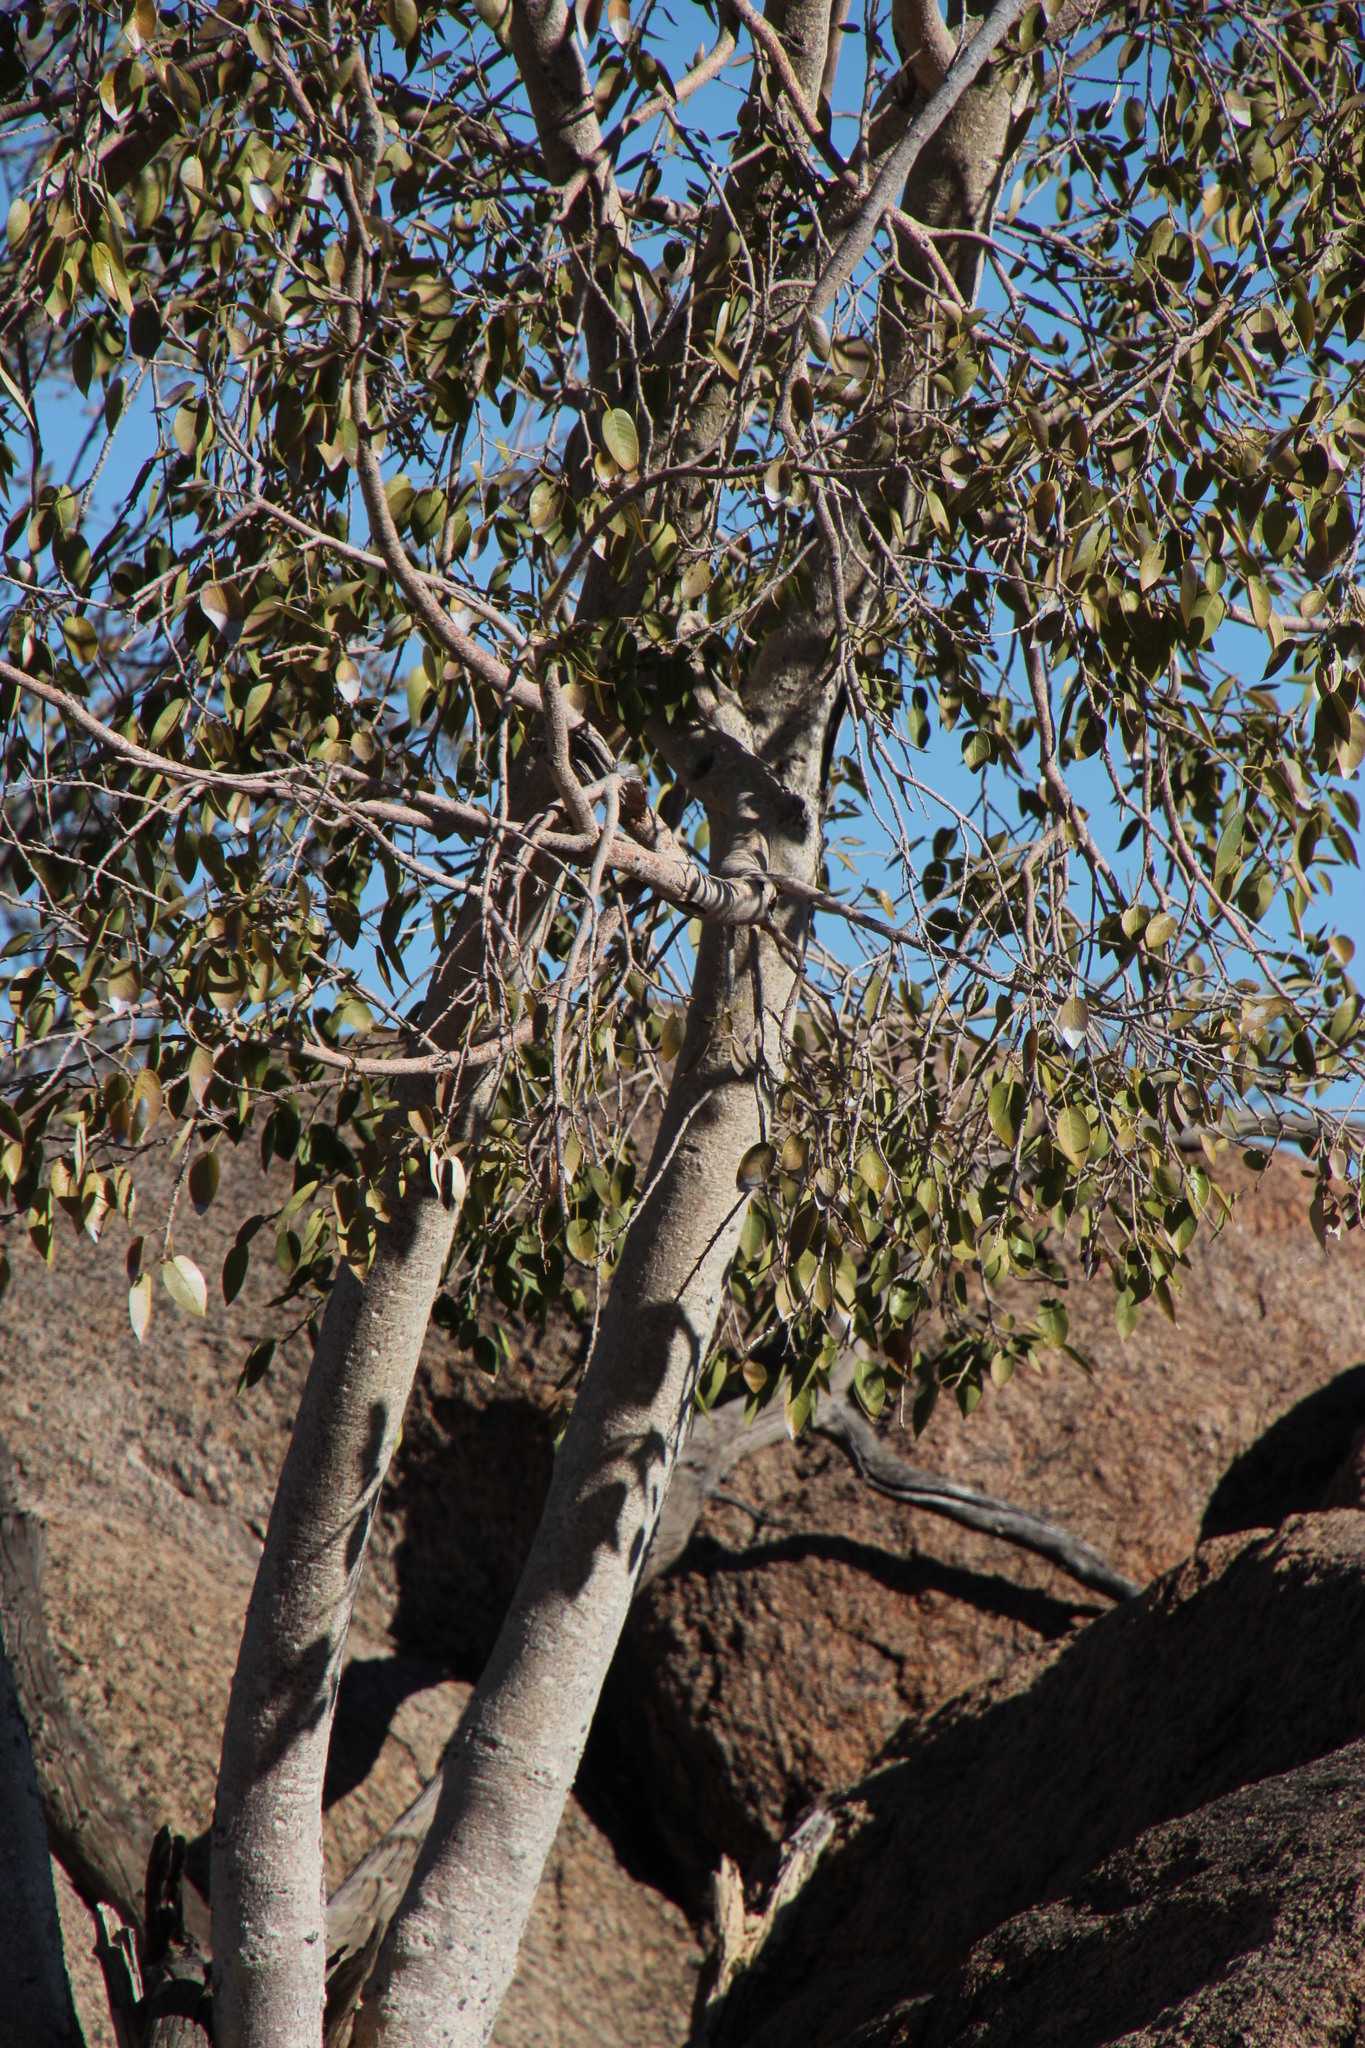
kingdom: Plantae
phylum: Tracheophyta
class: Magnoliopsida
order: Rosales
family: Moraceae
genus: Ficus
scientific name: Ficus cordata
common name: Namaqua rock fig
